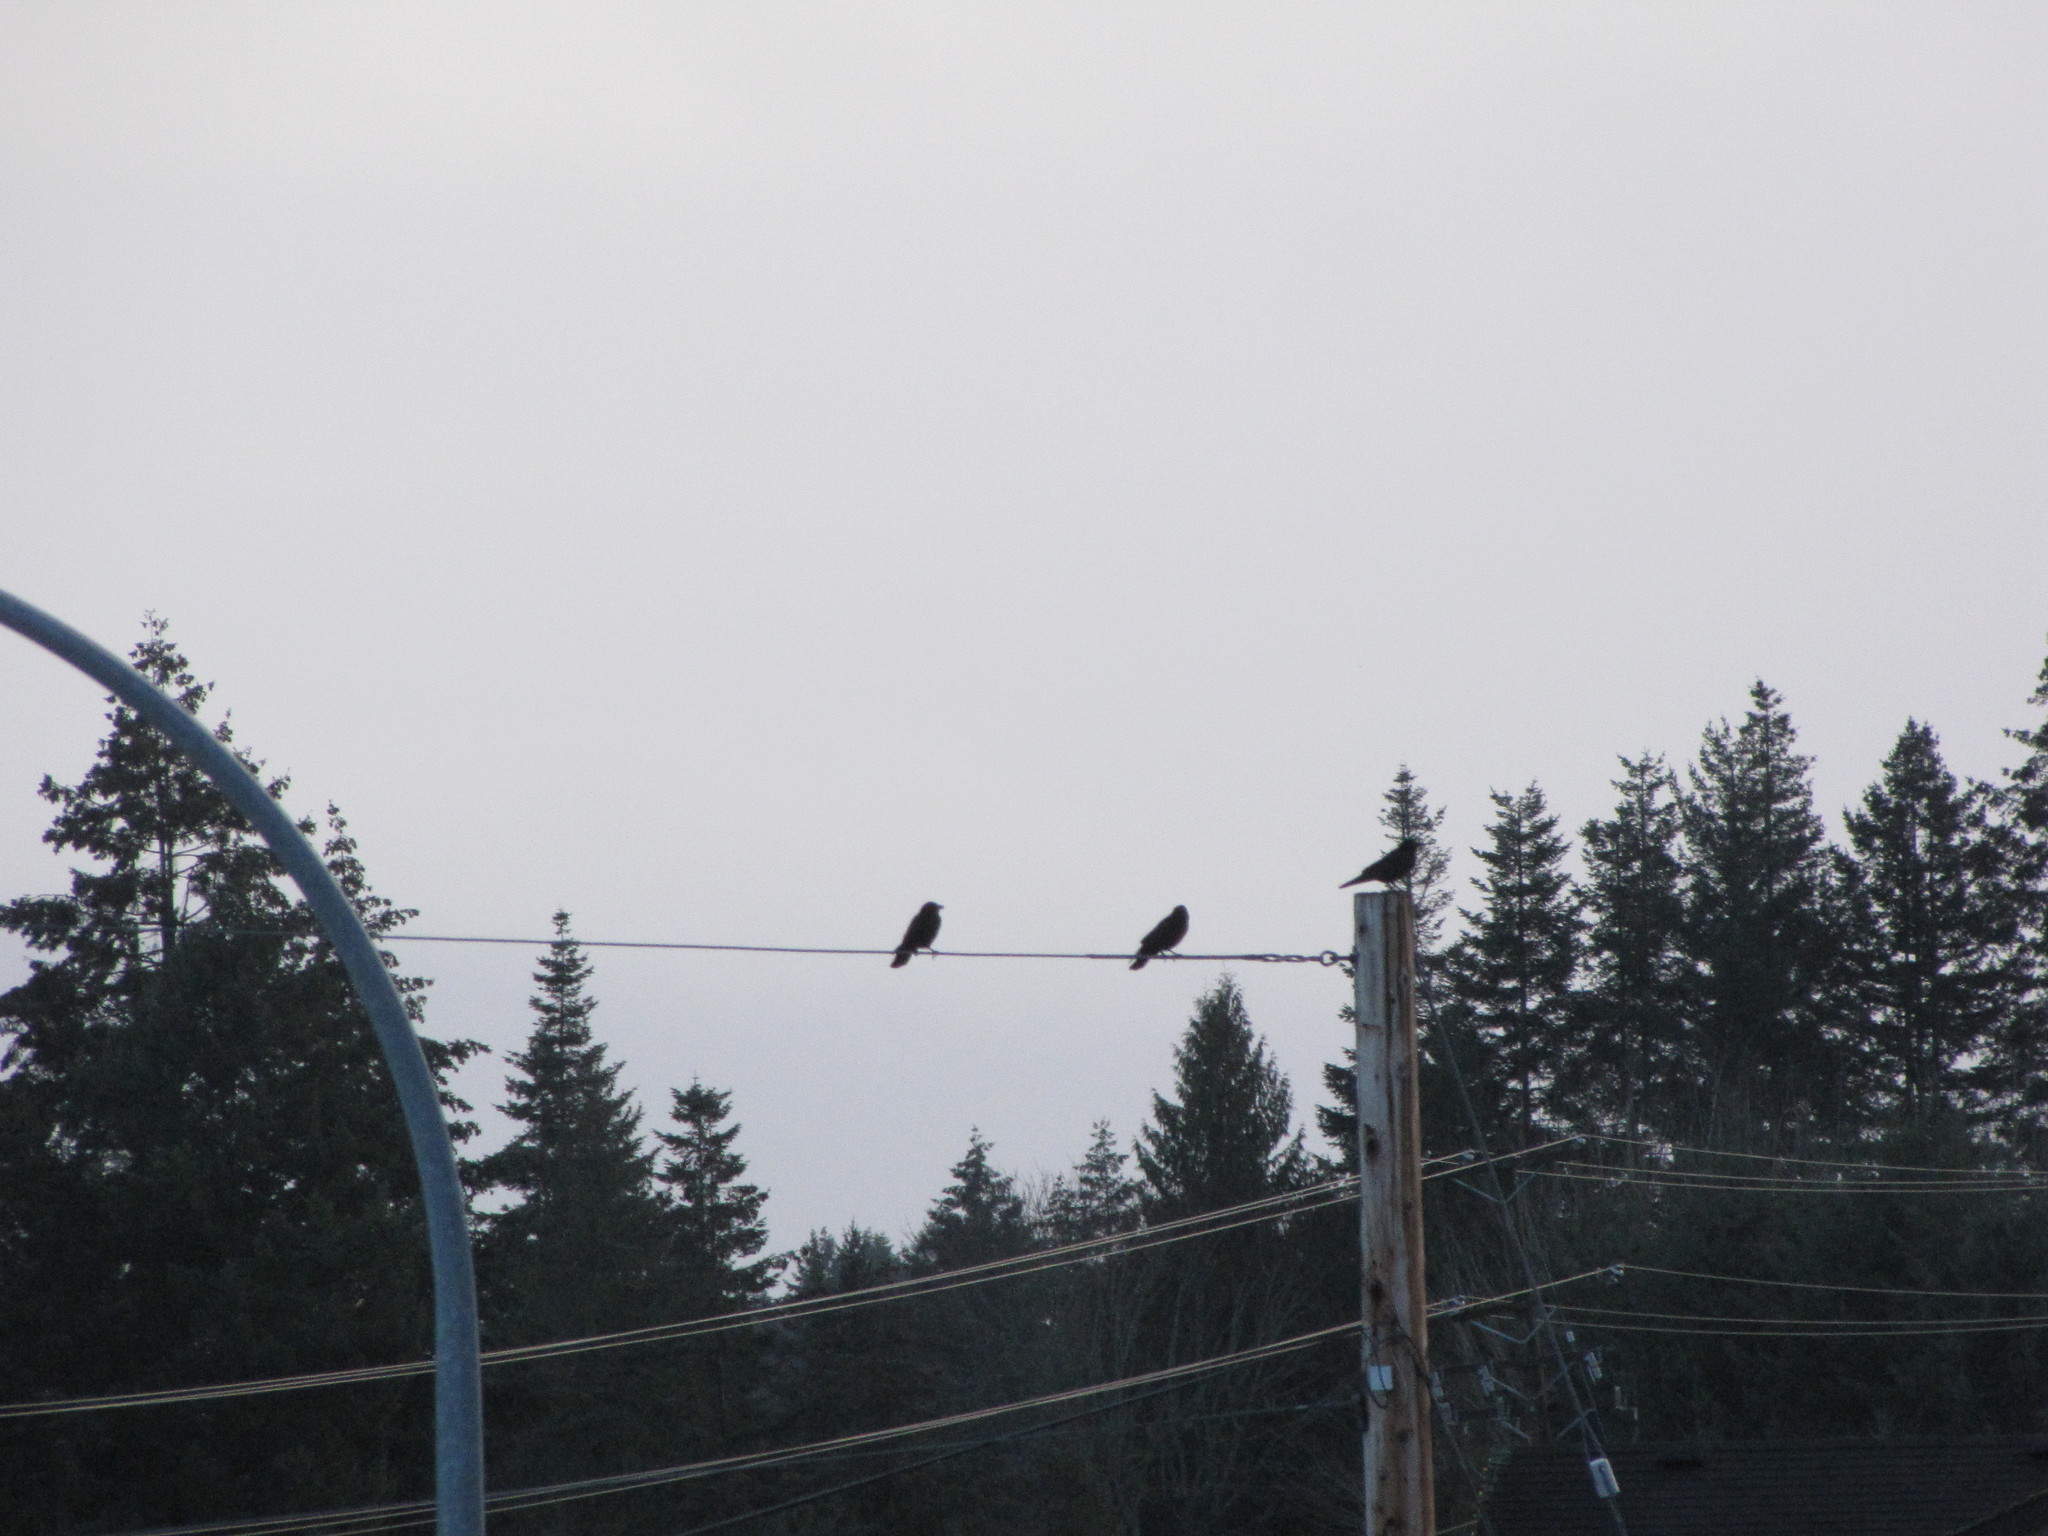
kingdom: Animalia
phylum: Chordata
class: Aves
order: Passeriformes
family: Corvidae
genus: Corvus
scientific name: Corvus brachyrhynchos
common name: American crow
